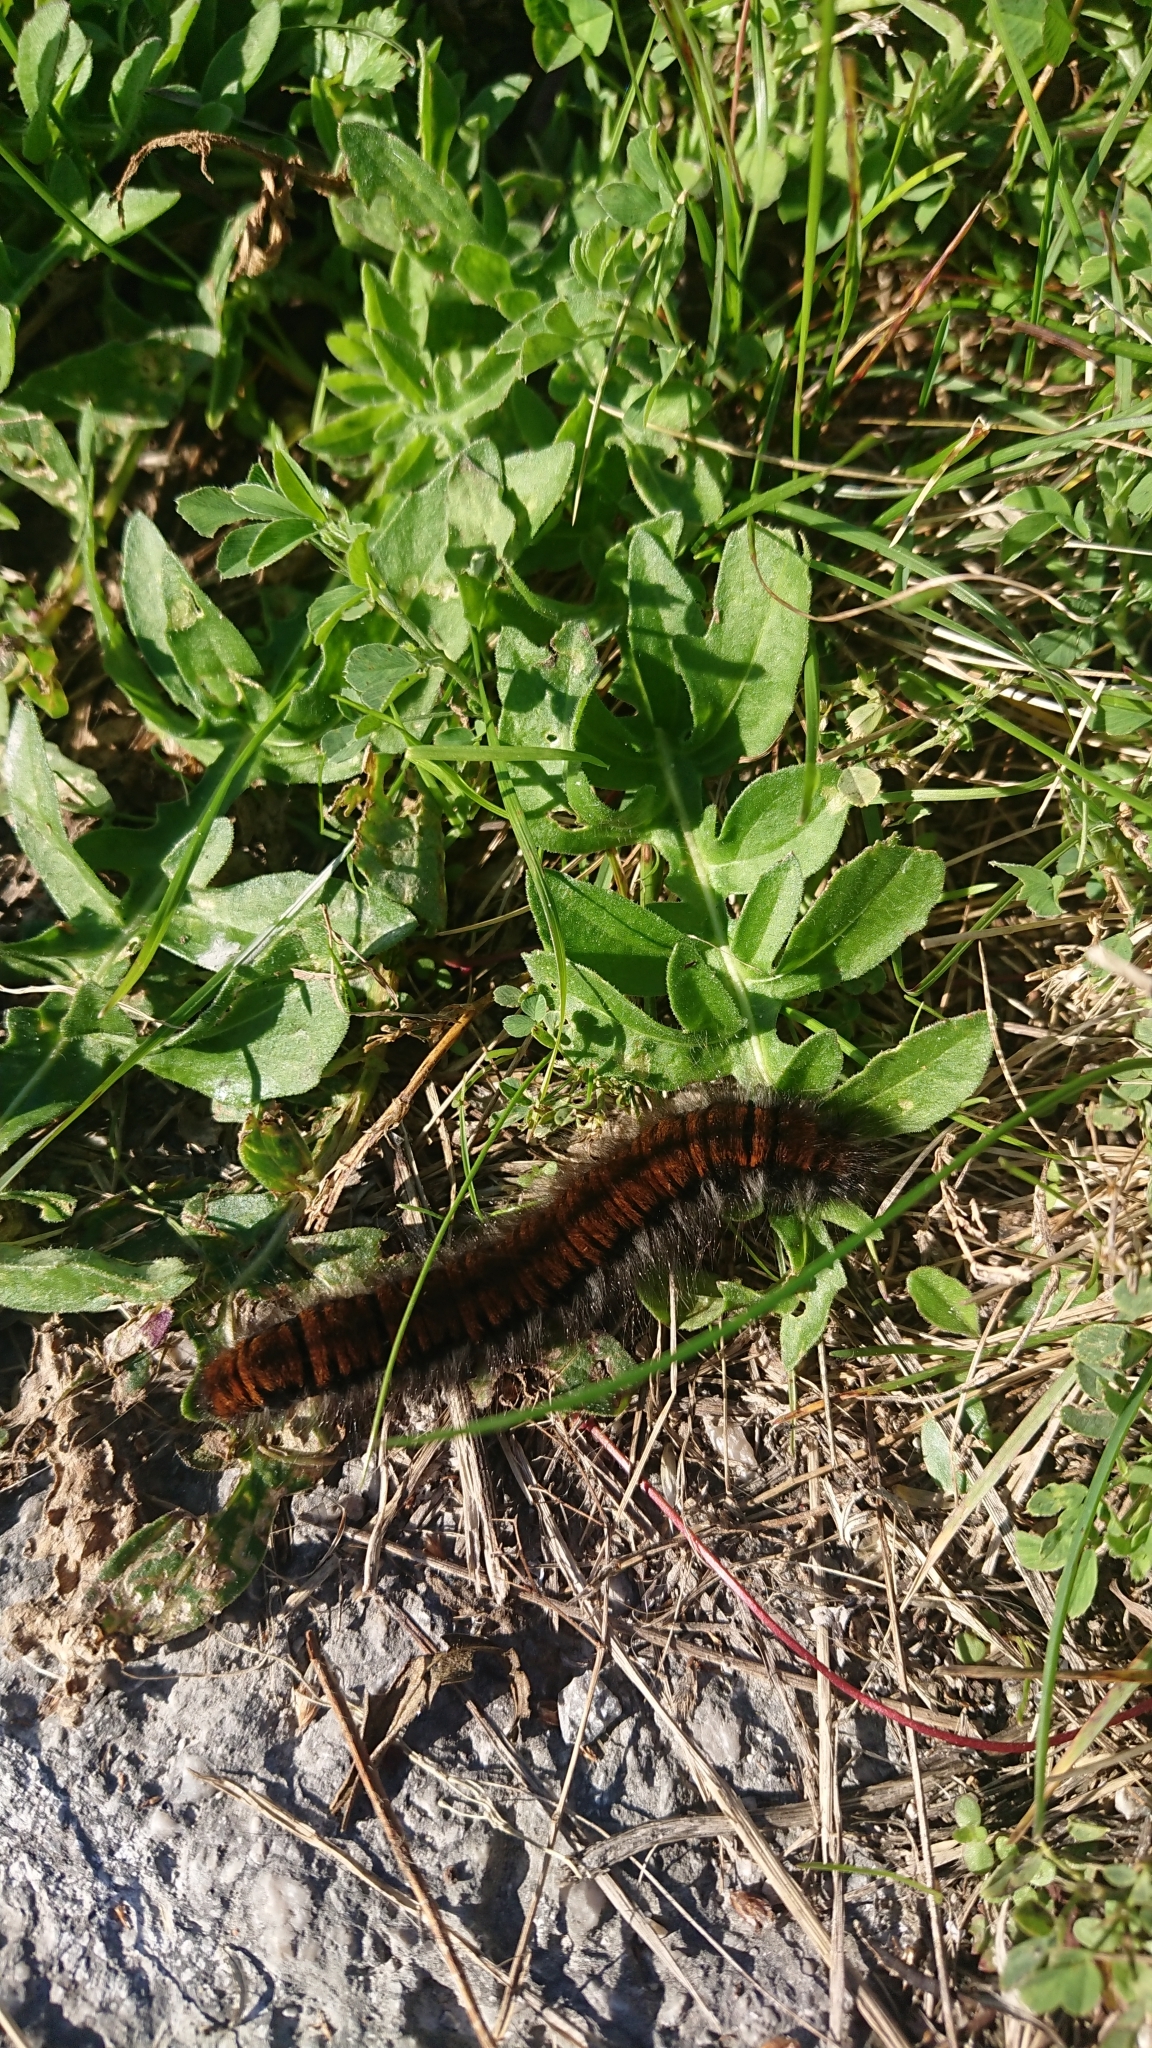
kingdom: Animalia
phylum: Arthropoda
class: Insecta
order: Lepidoptera
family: Lasiocampidae
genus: Macrothylacia
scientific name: Macrothylacia rubi
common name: Fox moth
